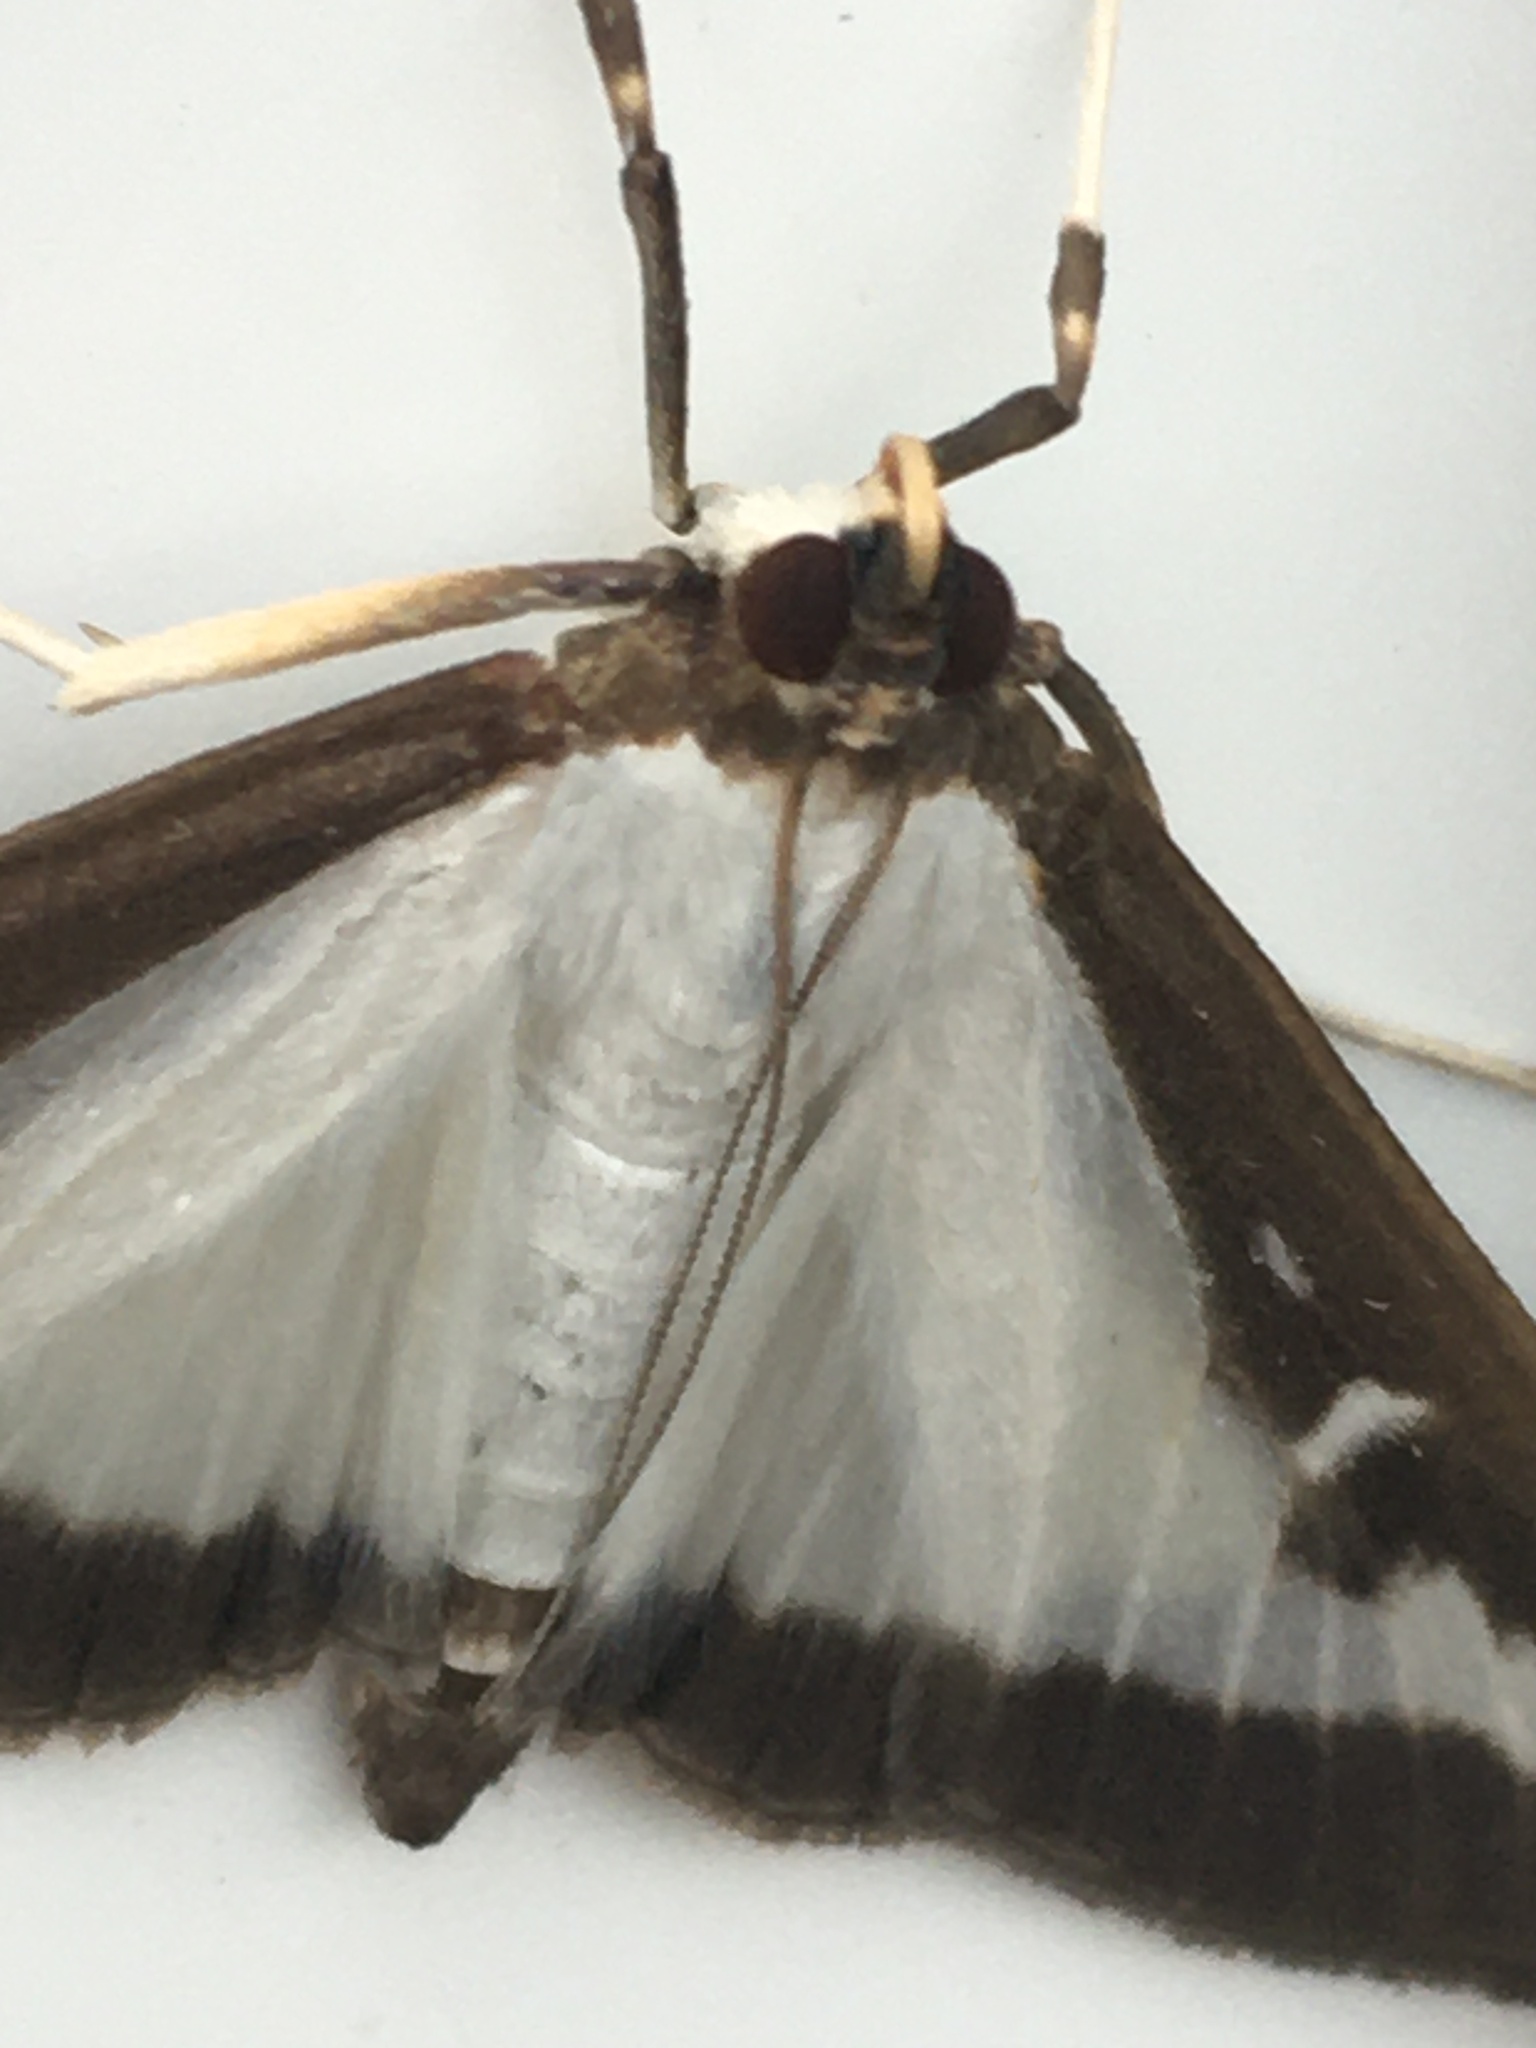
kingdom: Animalia
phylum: Arthropoda
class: Insecta
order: Lepidoptera
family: Crambidae
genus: Cydalima
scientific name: Cydalima perspectalis
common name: Box tree moth
